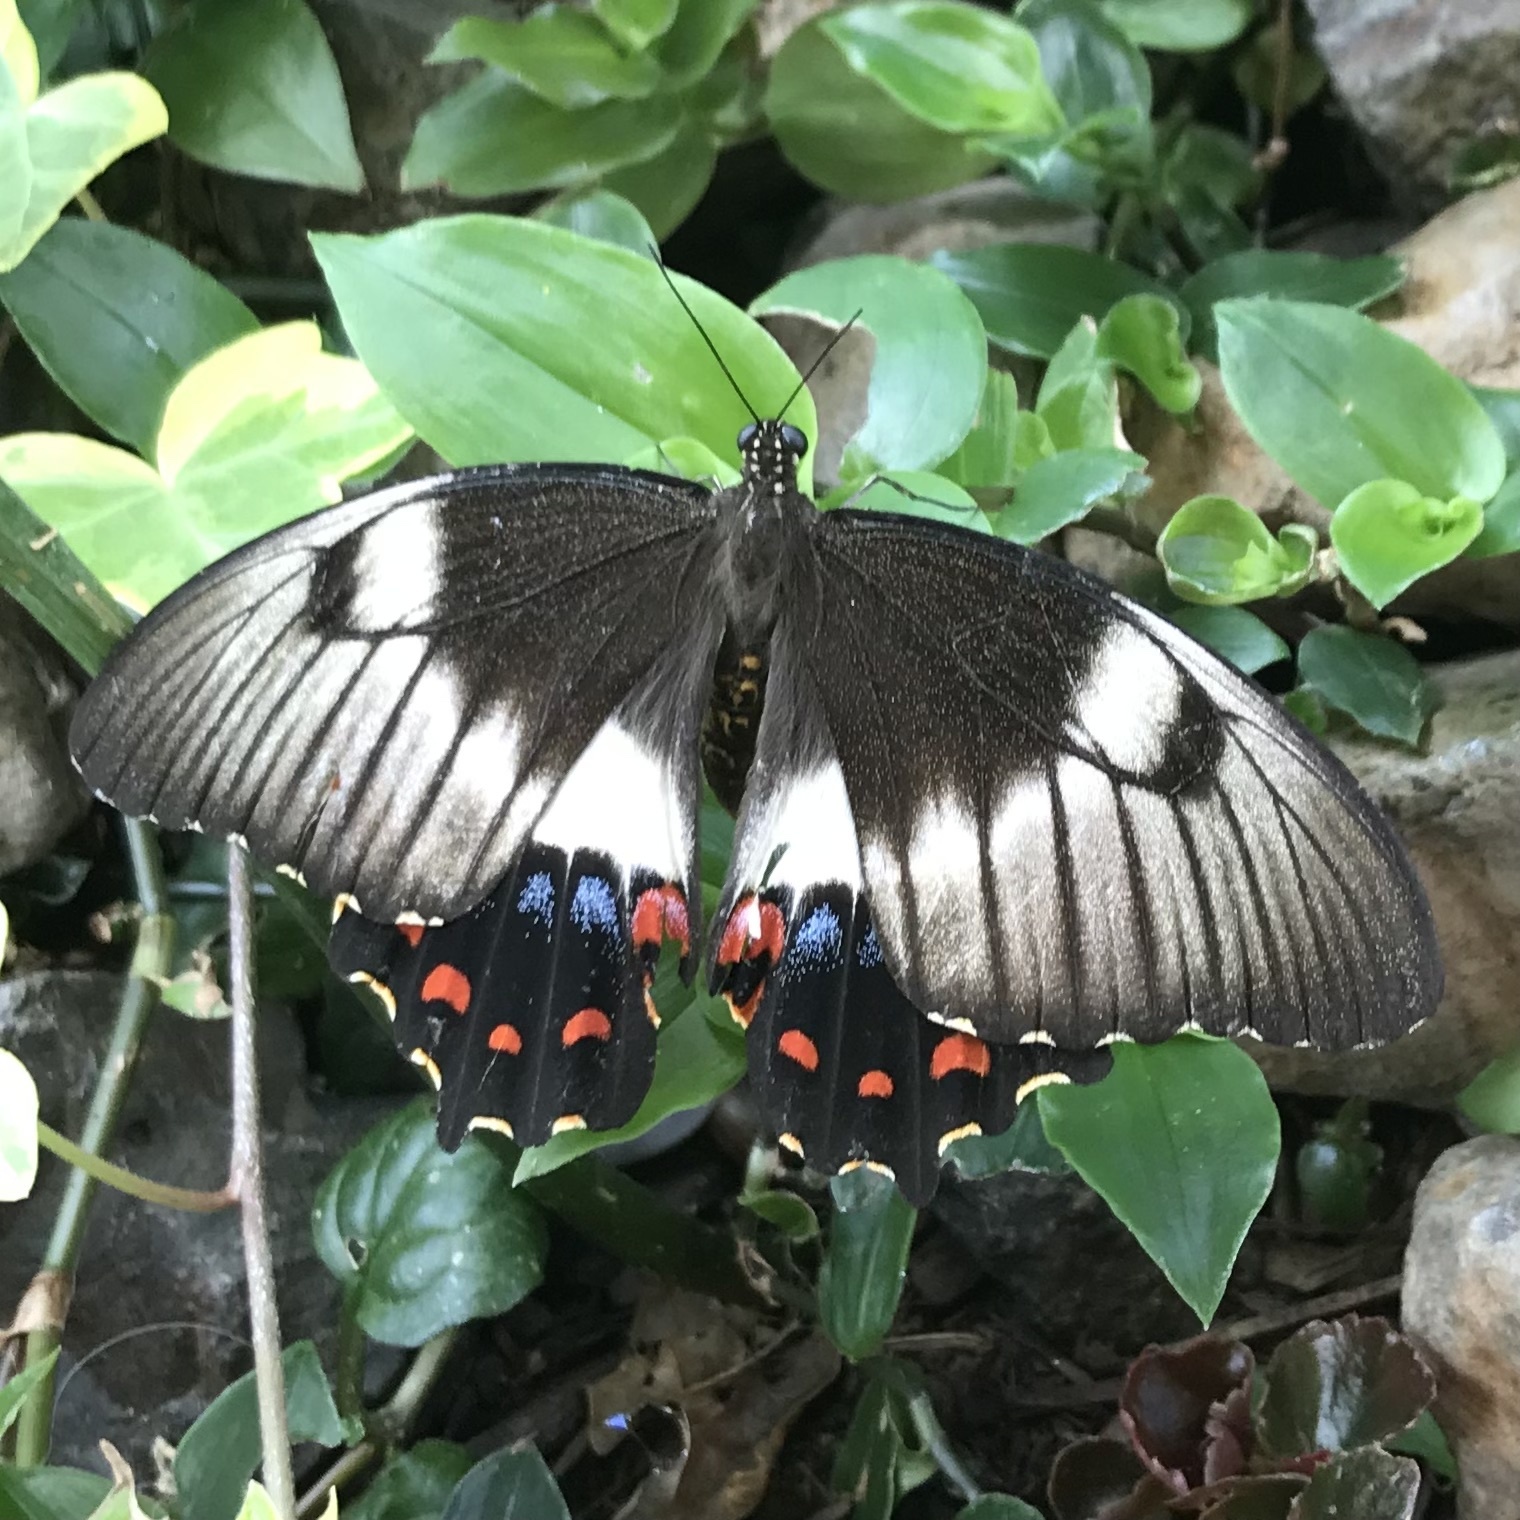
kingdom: Animalia
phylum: Arthropoda
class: Insecta
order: Lepidoptera
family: Papilionidae
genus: Papilio
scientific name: Papilio aegeus
